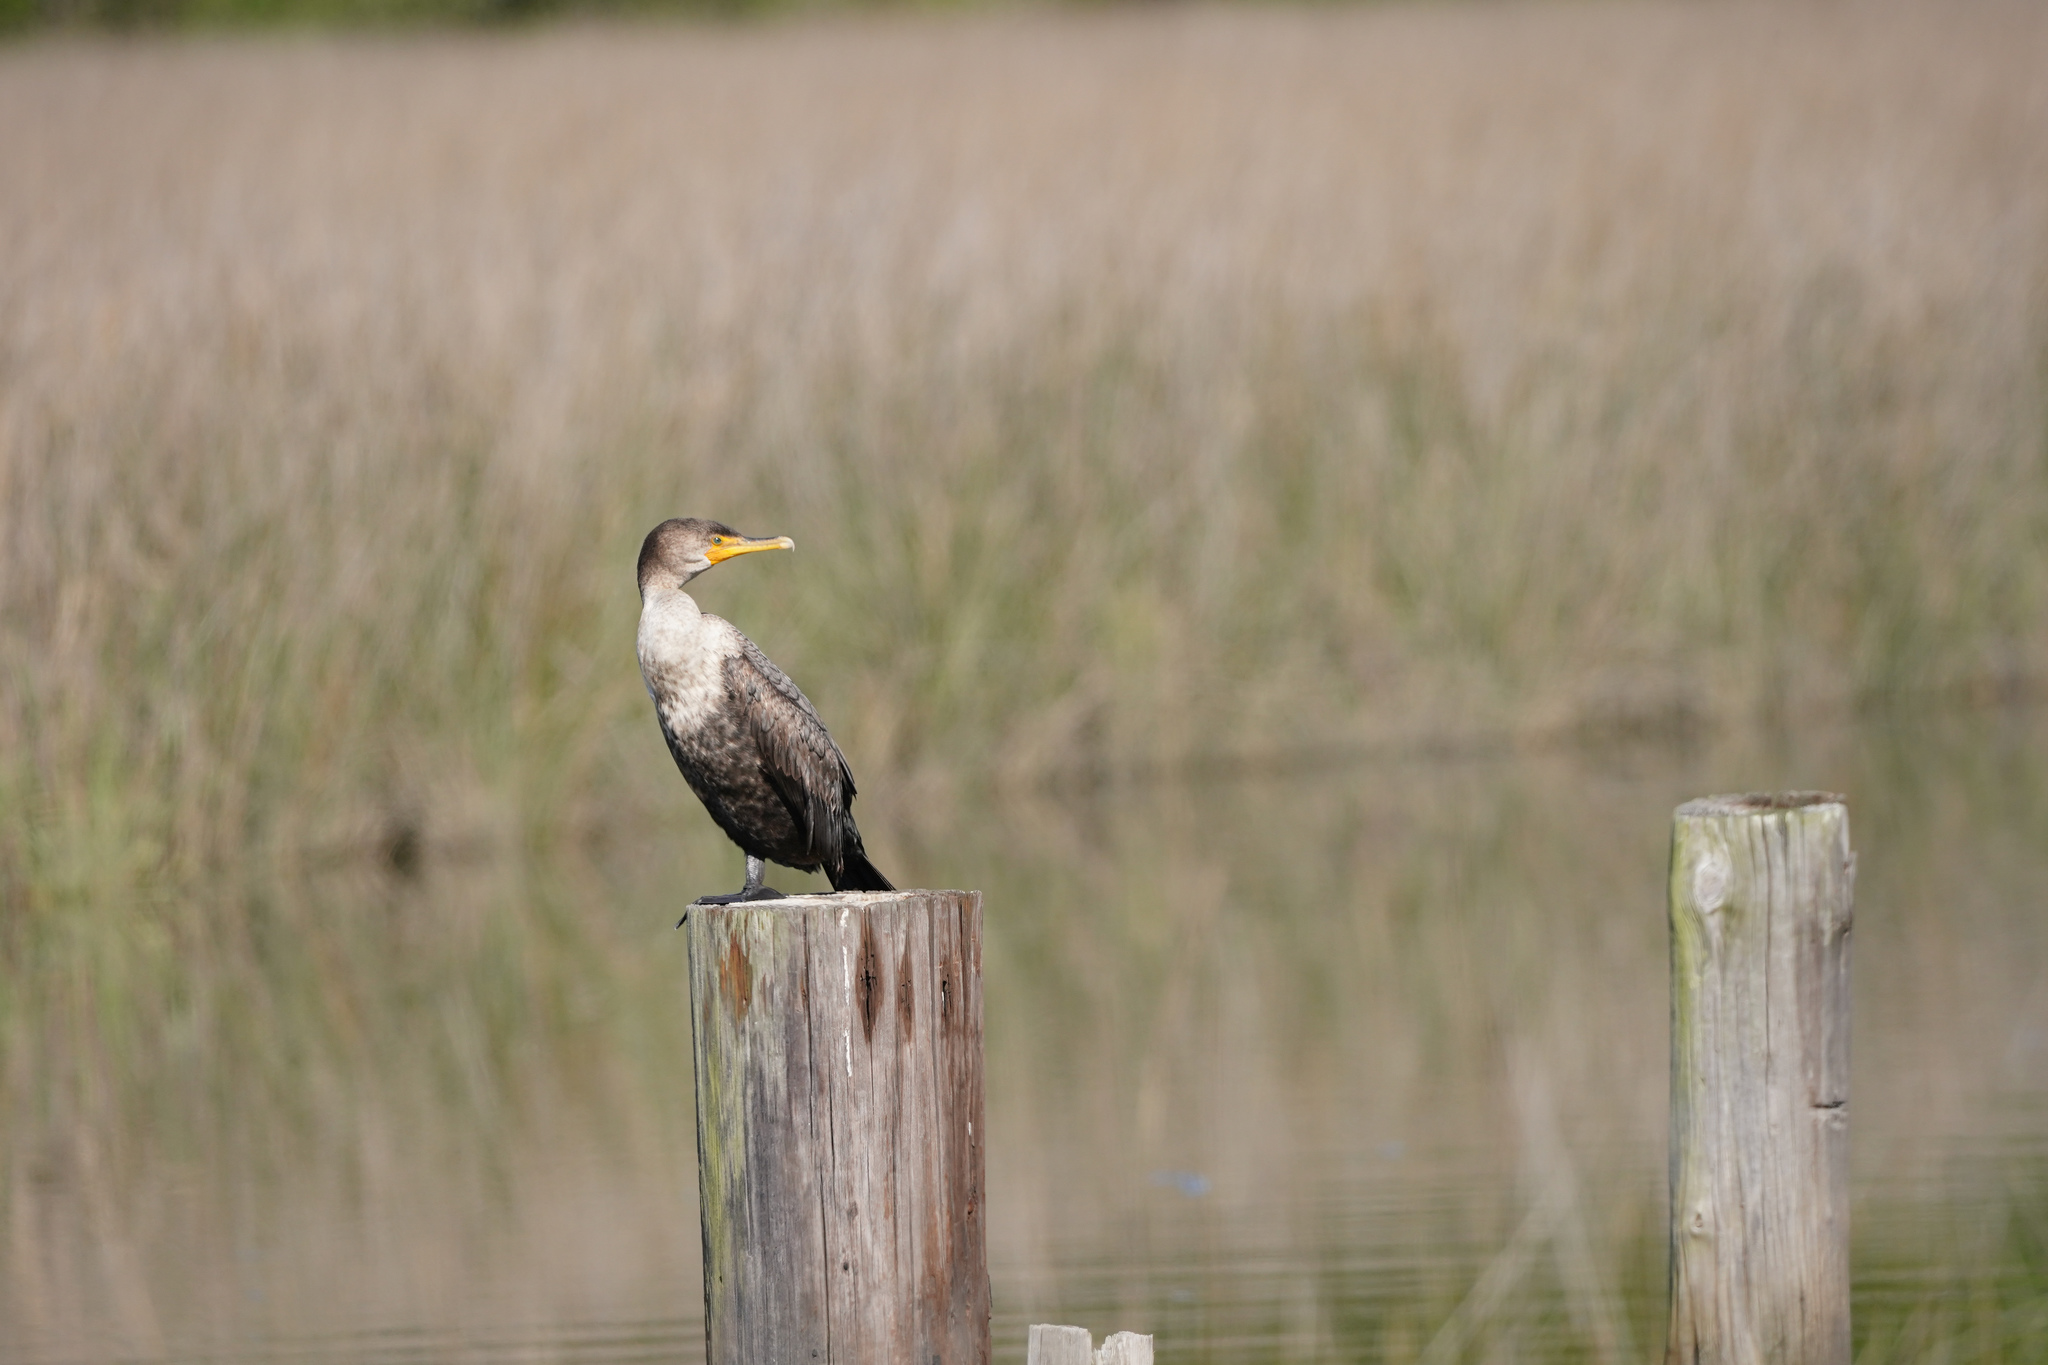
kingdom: Animalia
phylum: Chordata
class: Aves
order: Suliformes
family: Phalacrocoracidae
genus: Phalacrocorax
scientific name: Phalacrocorax auritus
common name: Double-crested cormorant
